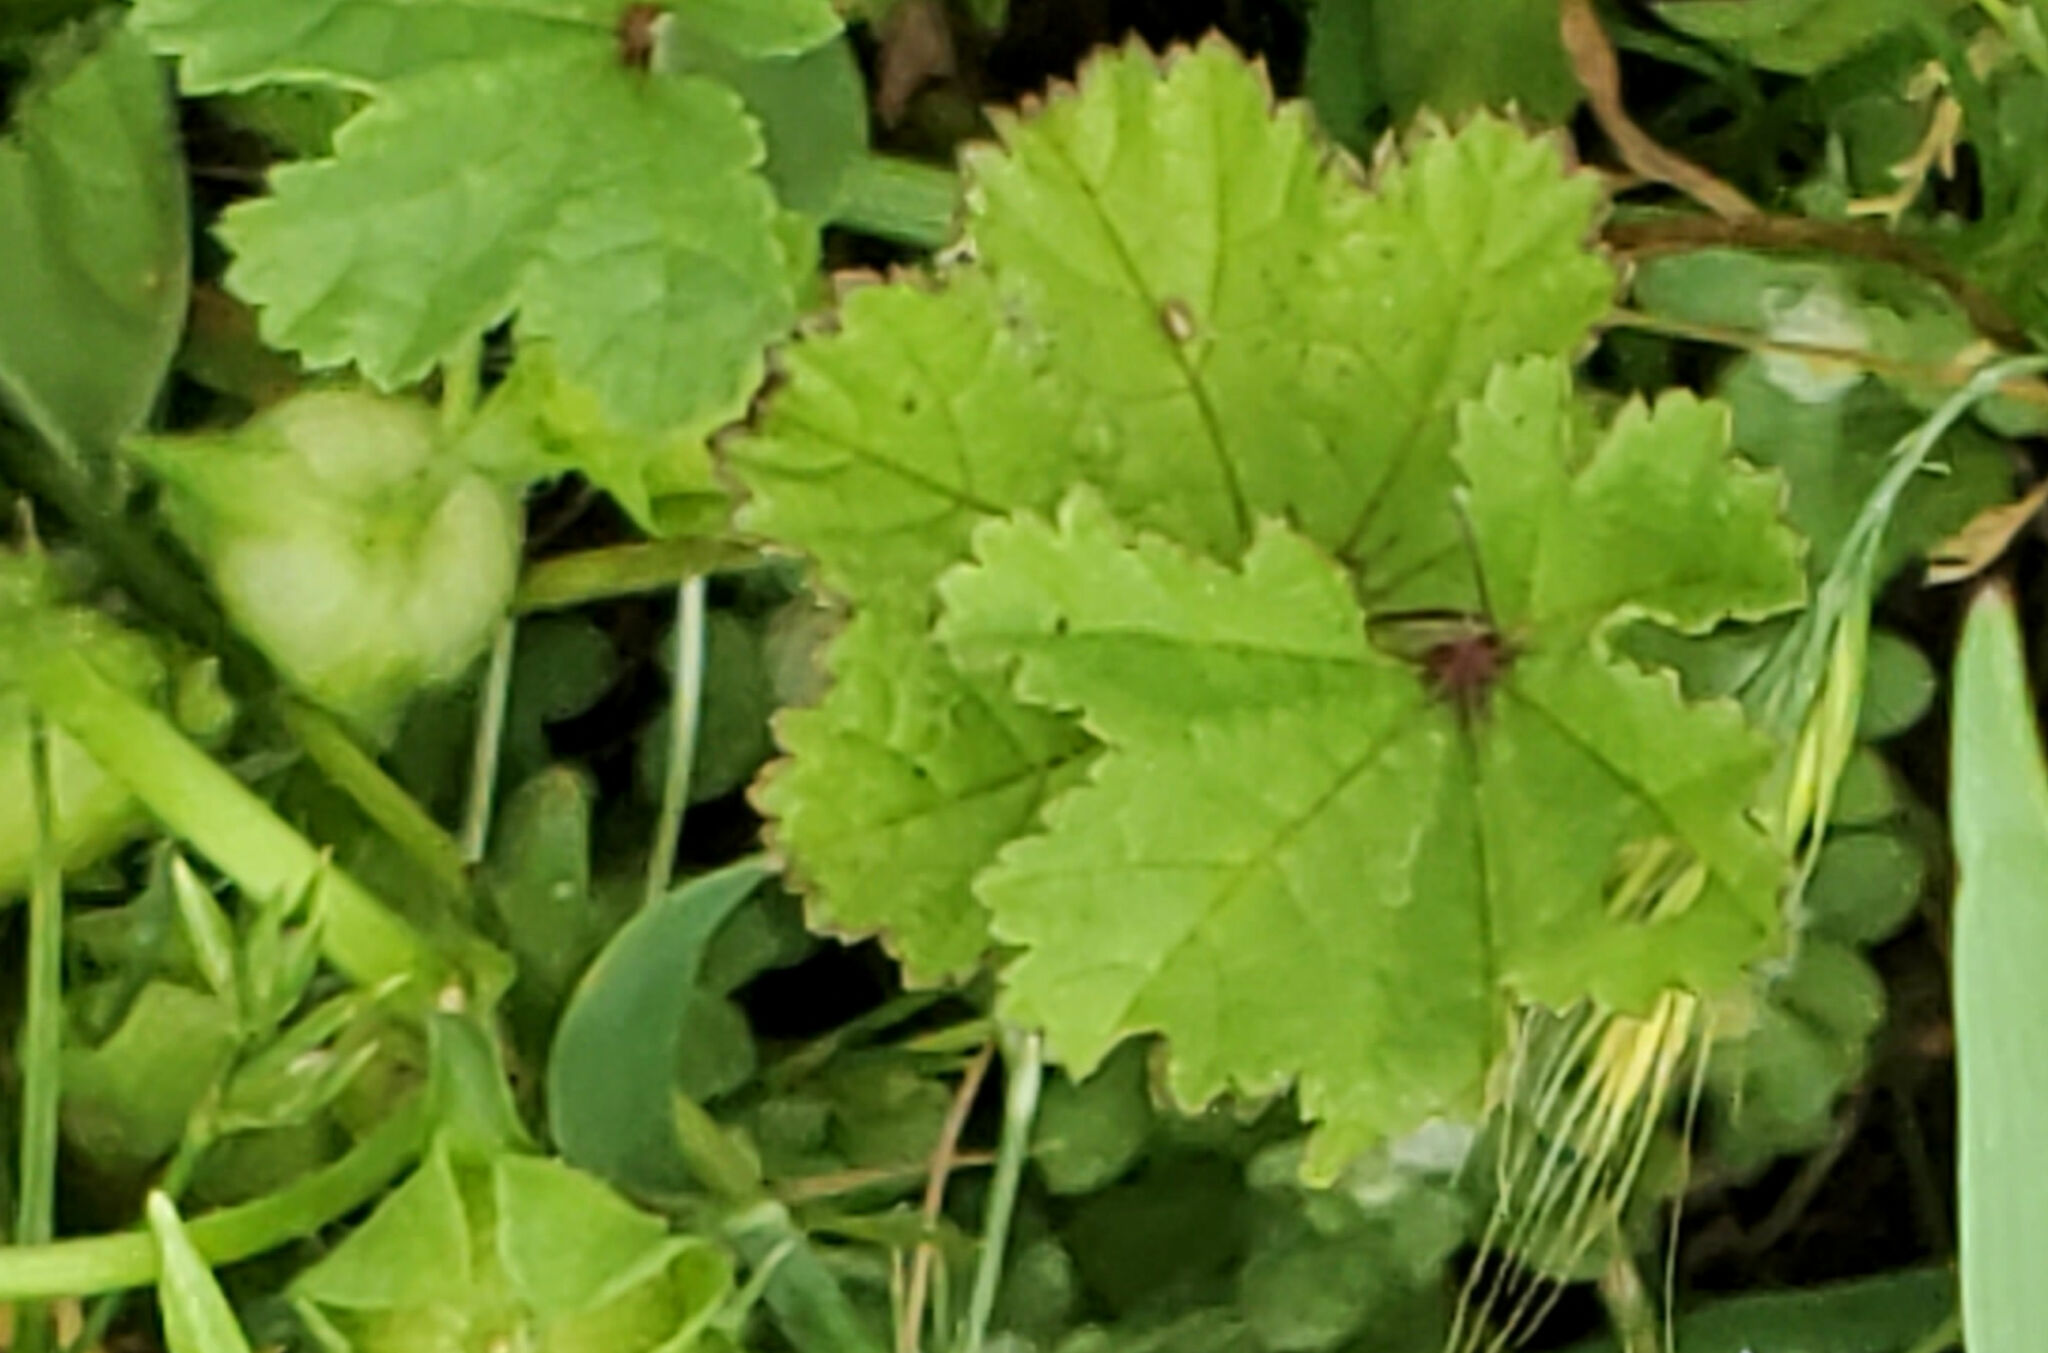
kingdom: Plantae
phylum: Tracheophyta
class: Magnoliopsida
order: Malvales
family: Malvaceae
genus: Malva
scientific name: Malva nicaeensis
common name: French mallow
